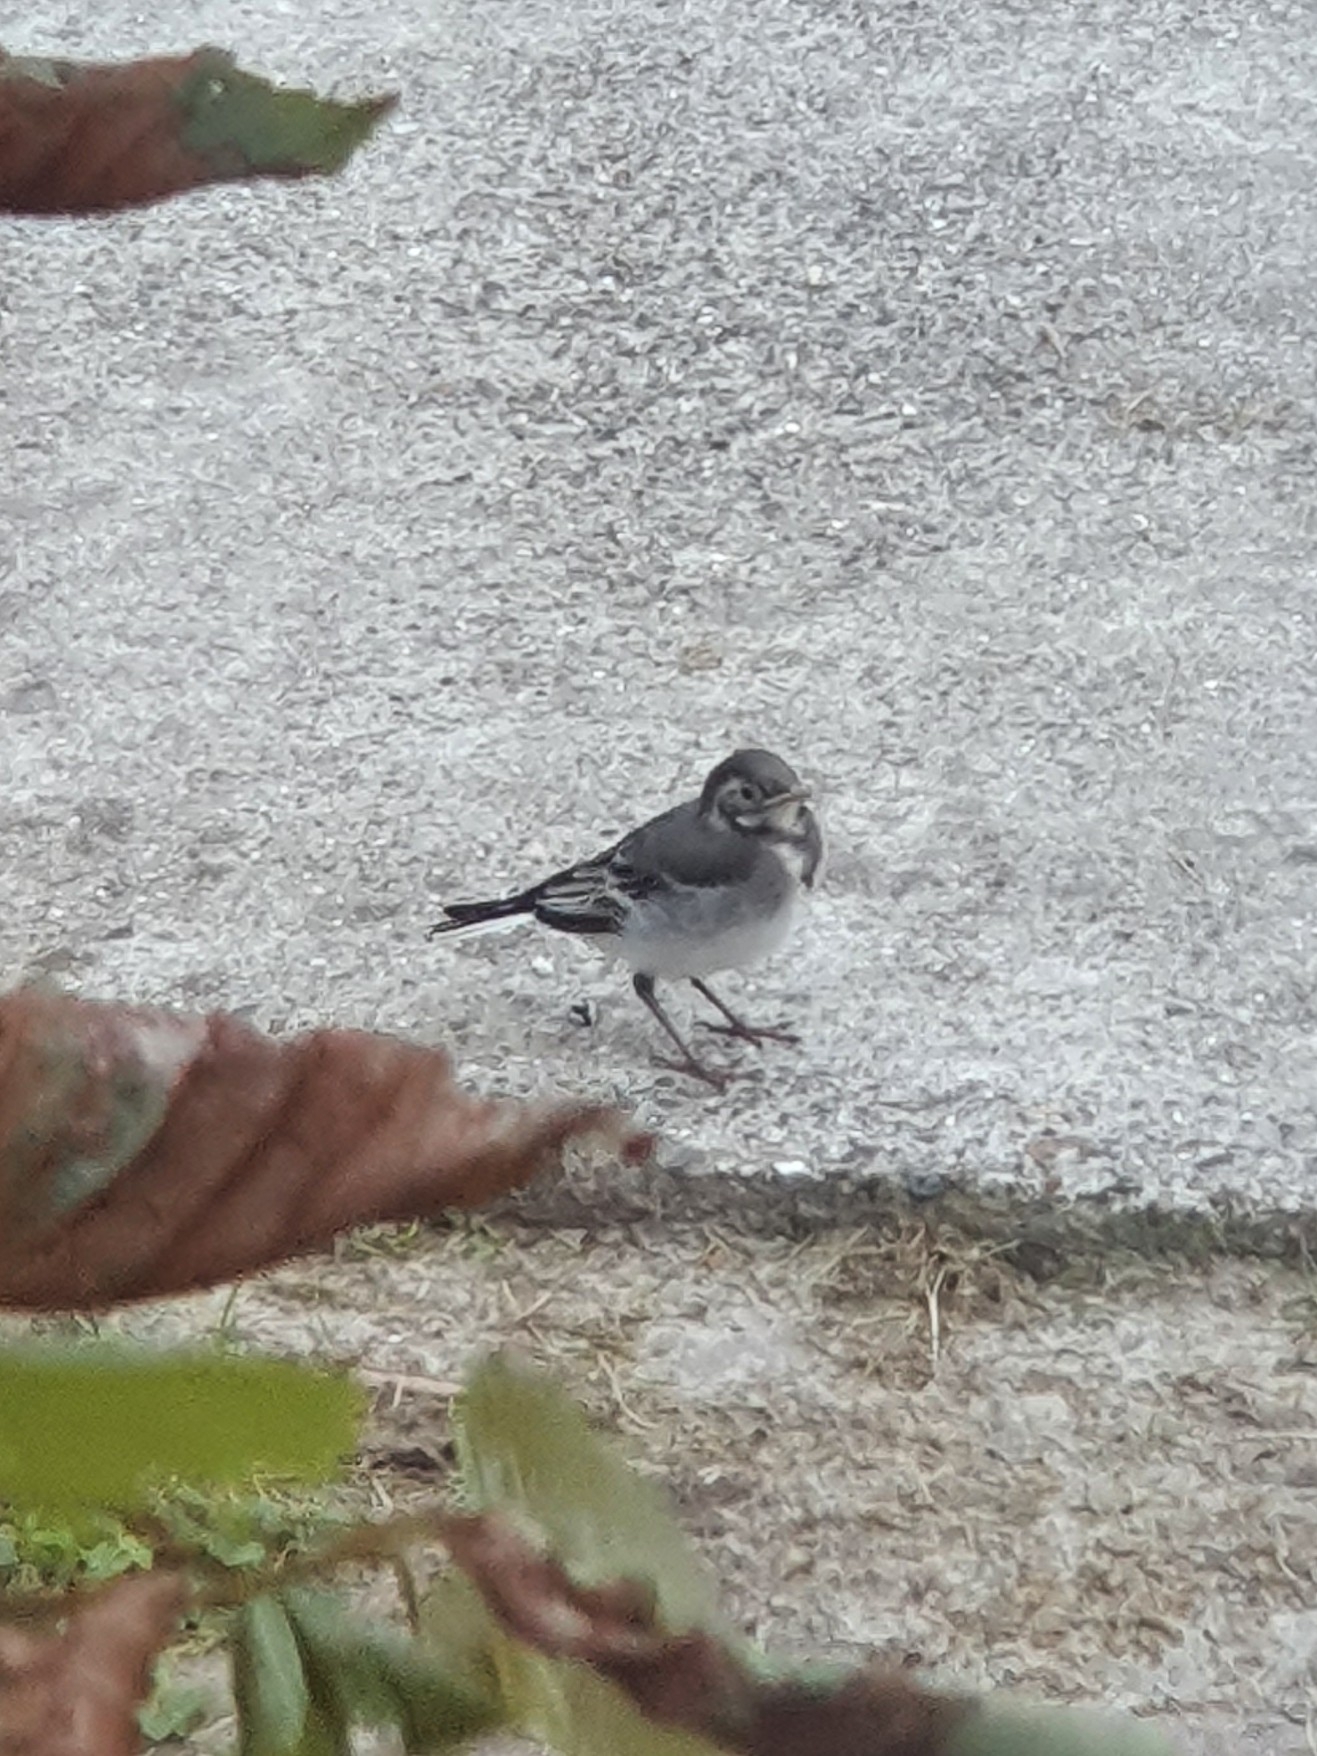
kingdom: Animalia
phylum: Chordata
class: Aves
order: Passeriformes
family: Motacillidae
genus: Motacilla
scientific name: Motacilla alba
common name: White wagtail
